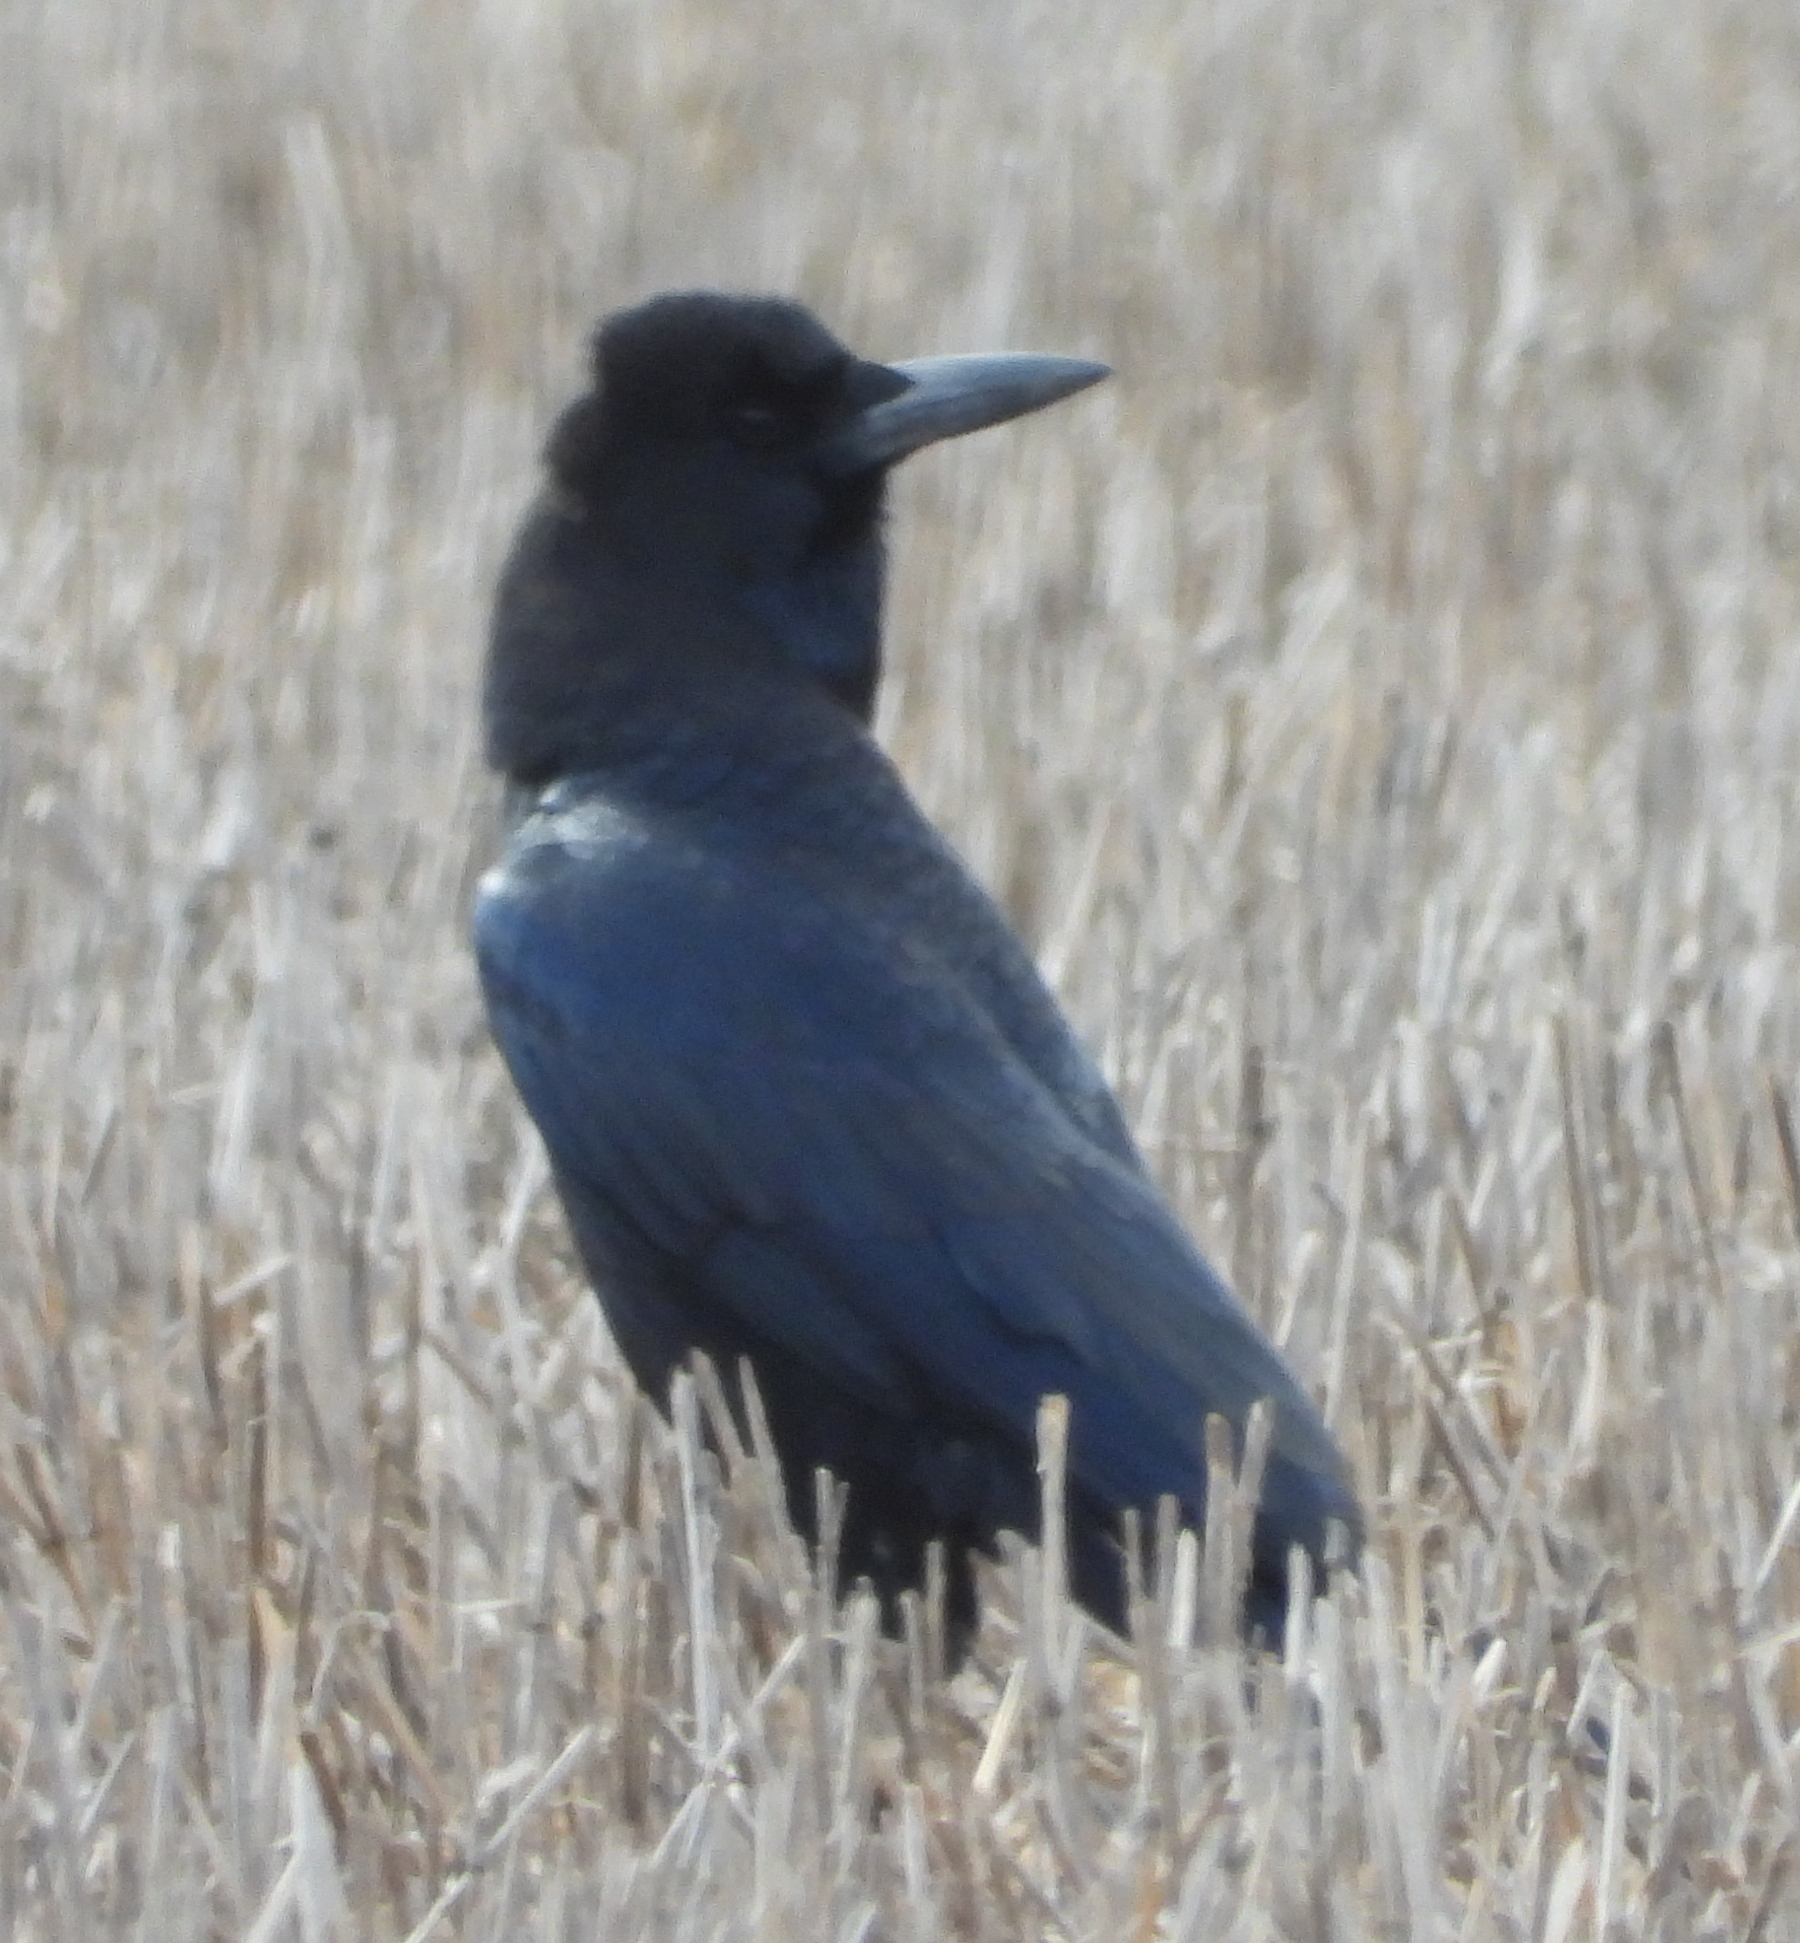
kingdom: Animalia
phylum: Chordata
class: Aves
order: Passeriformes
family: Corvidae
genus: Corvus
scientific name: Corvus capensis
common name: Cape crow
